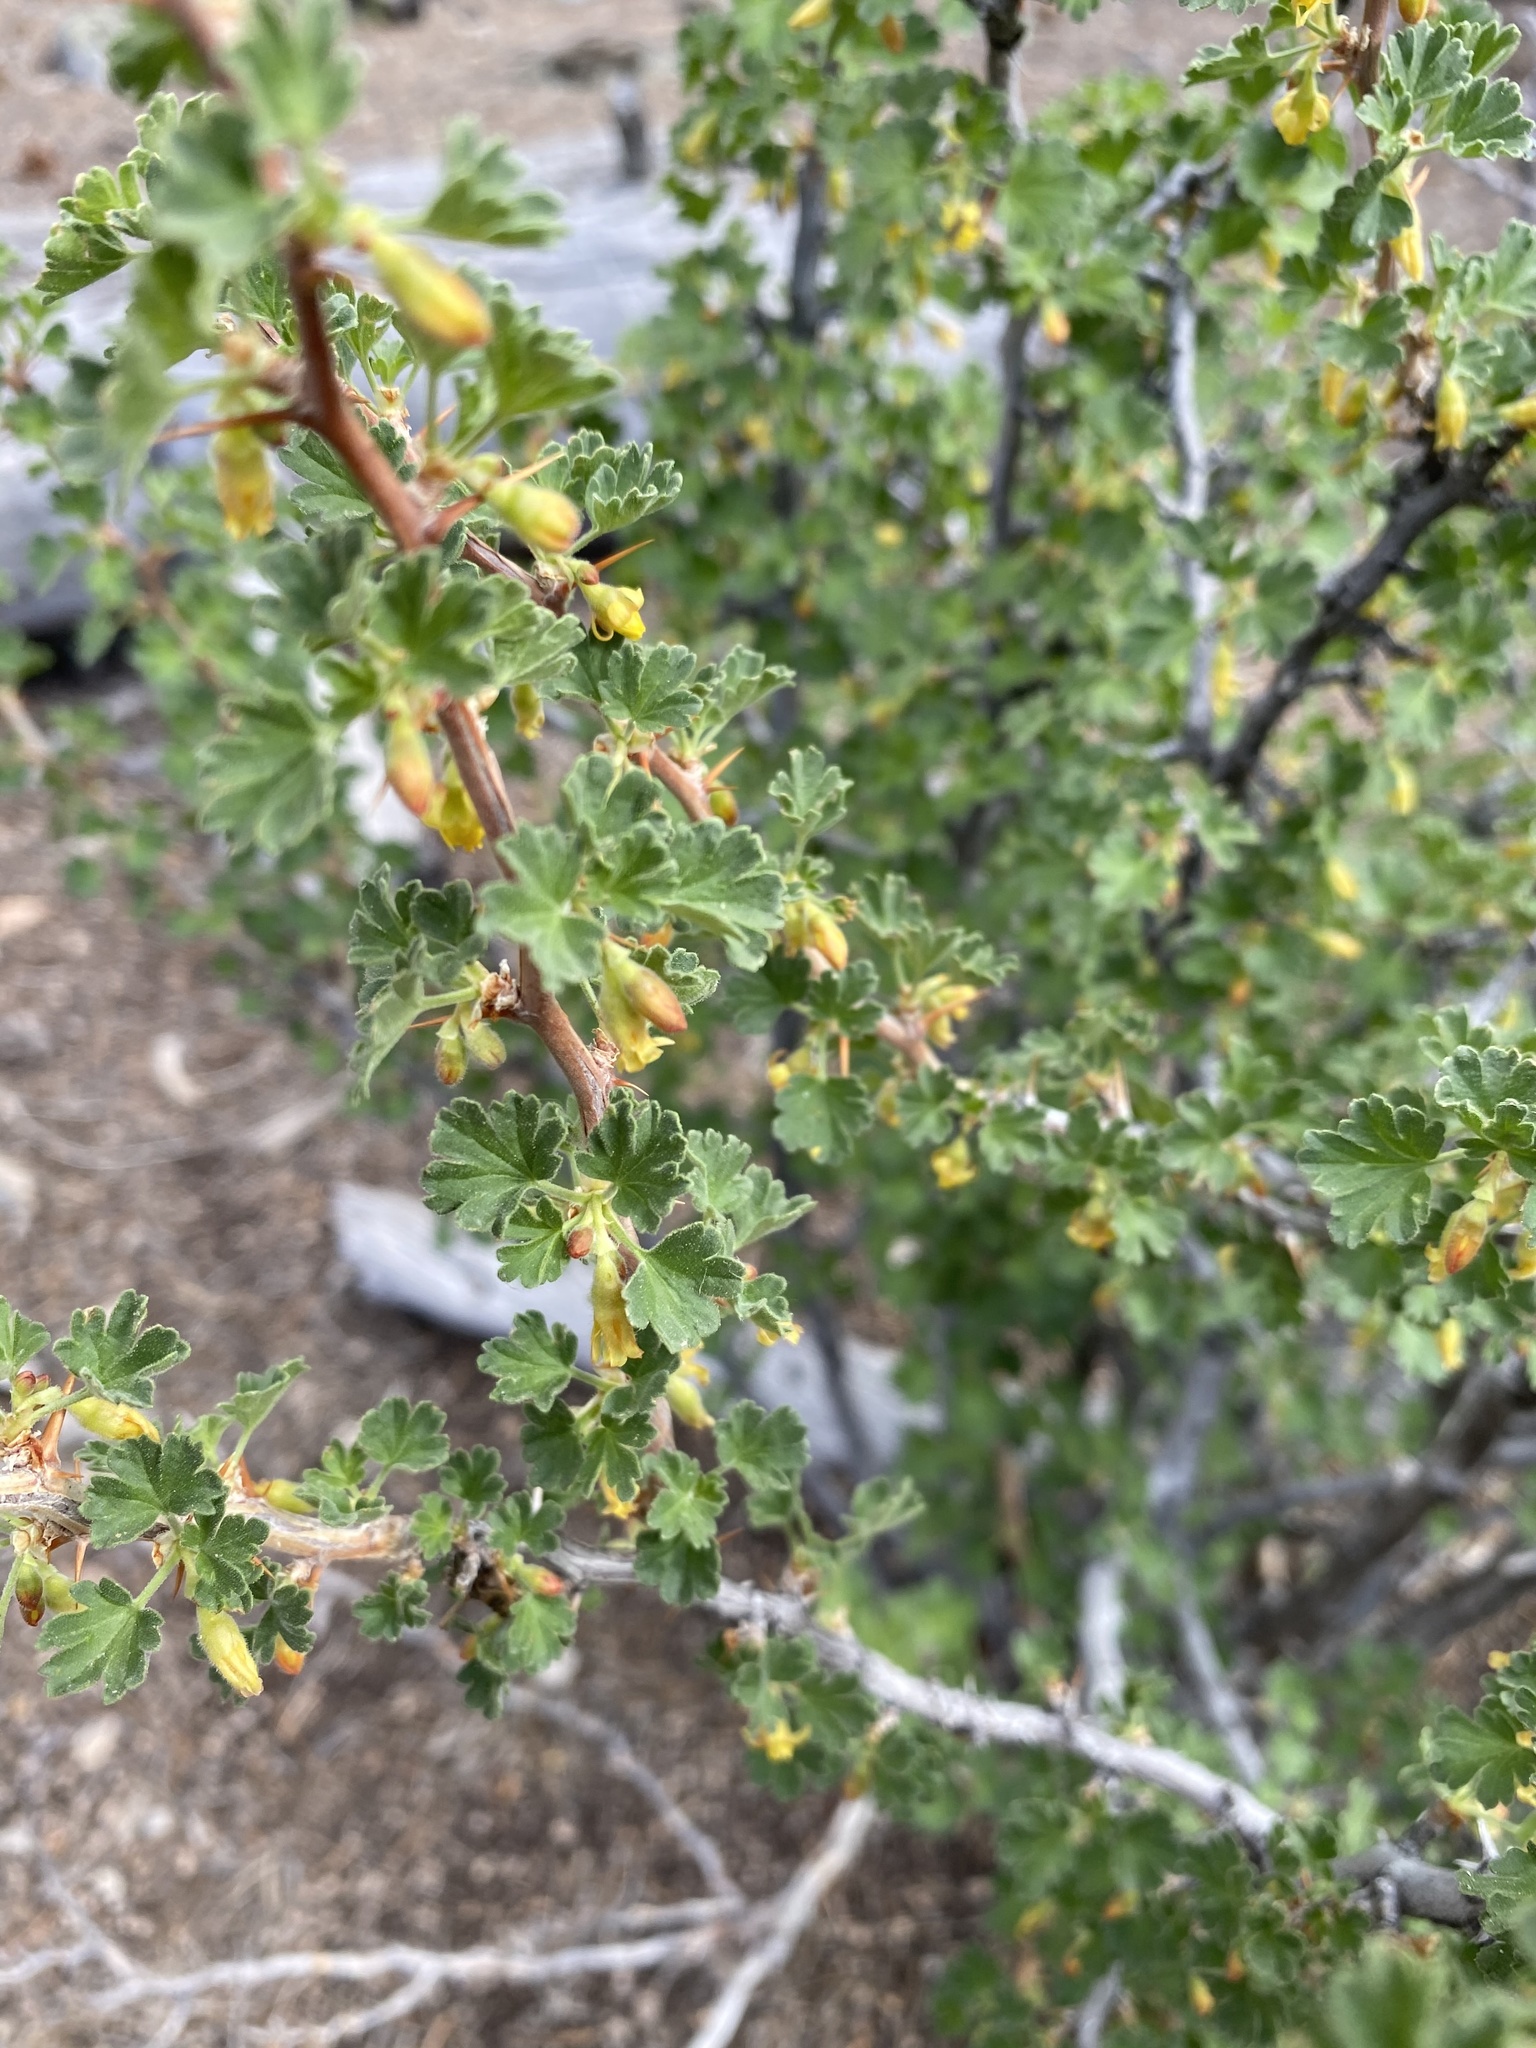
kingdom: Plantae
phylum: Tracheophyta
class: Magnoliopsida
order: Saxifragales
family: Grossulariaceae
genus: Ribes
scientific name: Ribes velutinum
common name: Desert gooseberry
